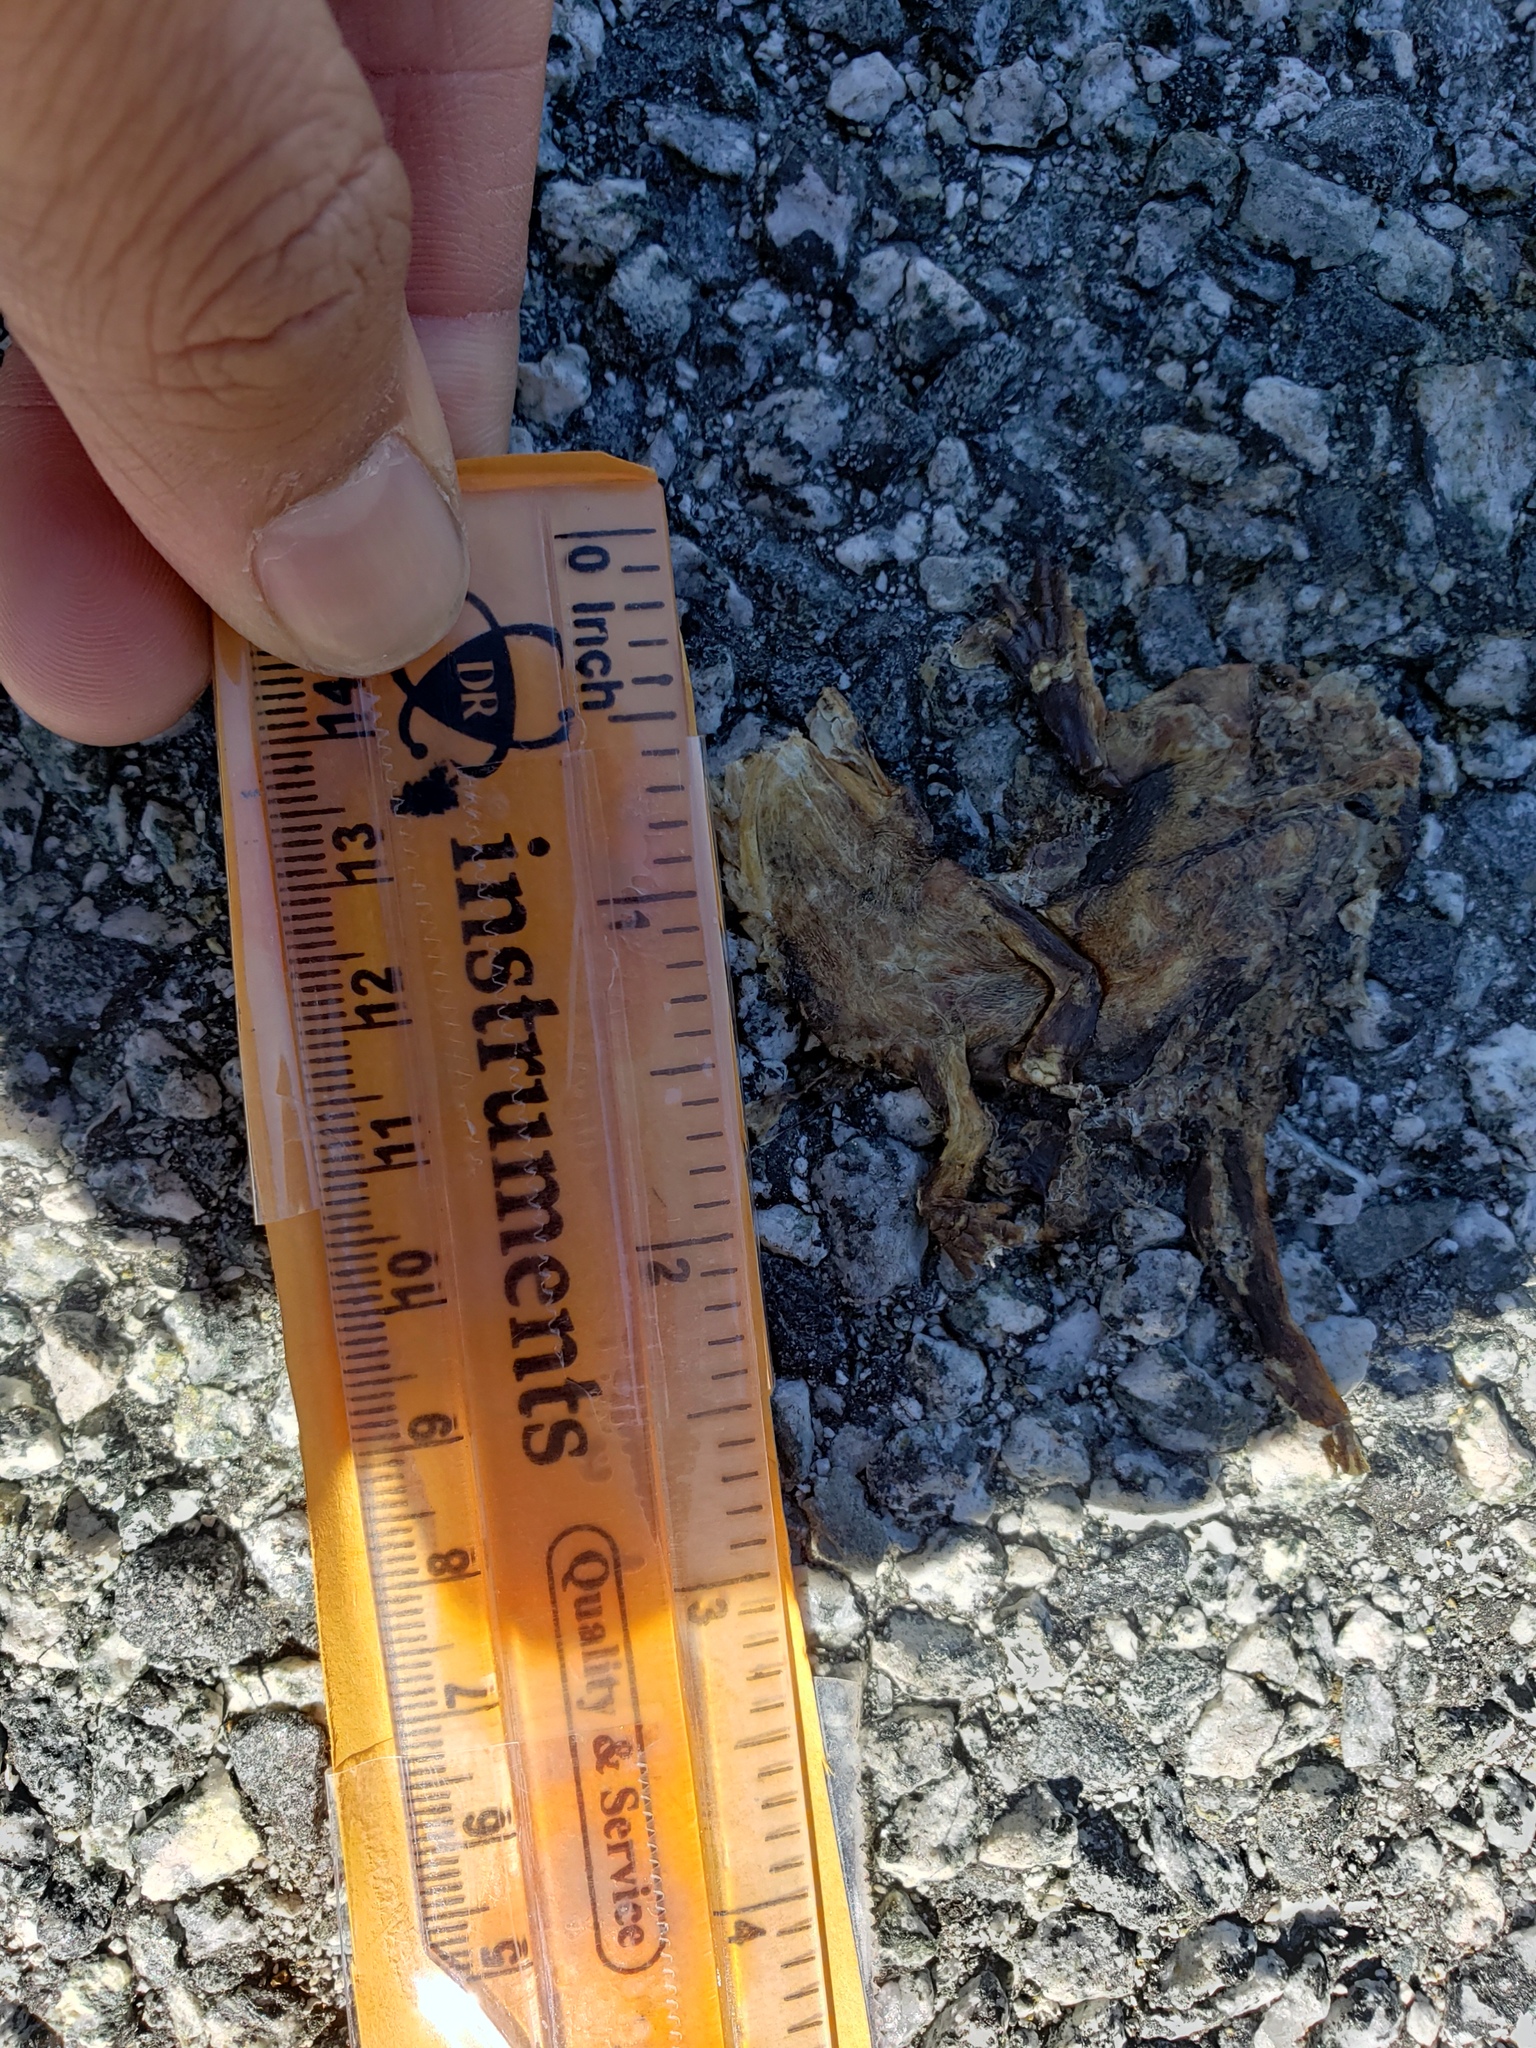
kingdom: Animalia
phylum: Chordata
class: Amphibia
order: Caudata
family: Salamandridae
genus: Taricha
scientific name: Taricha
